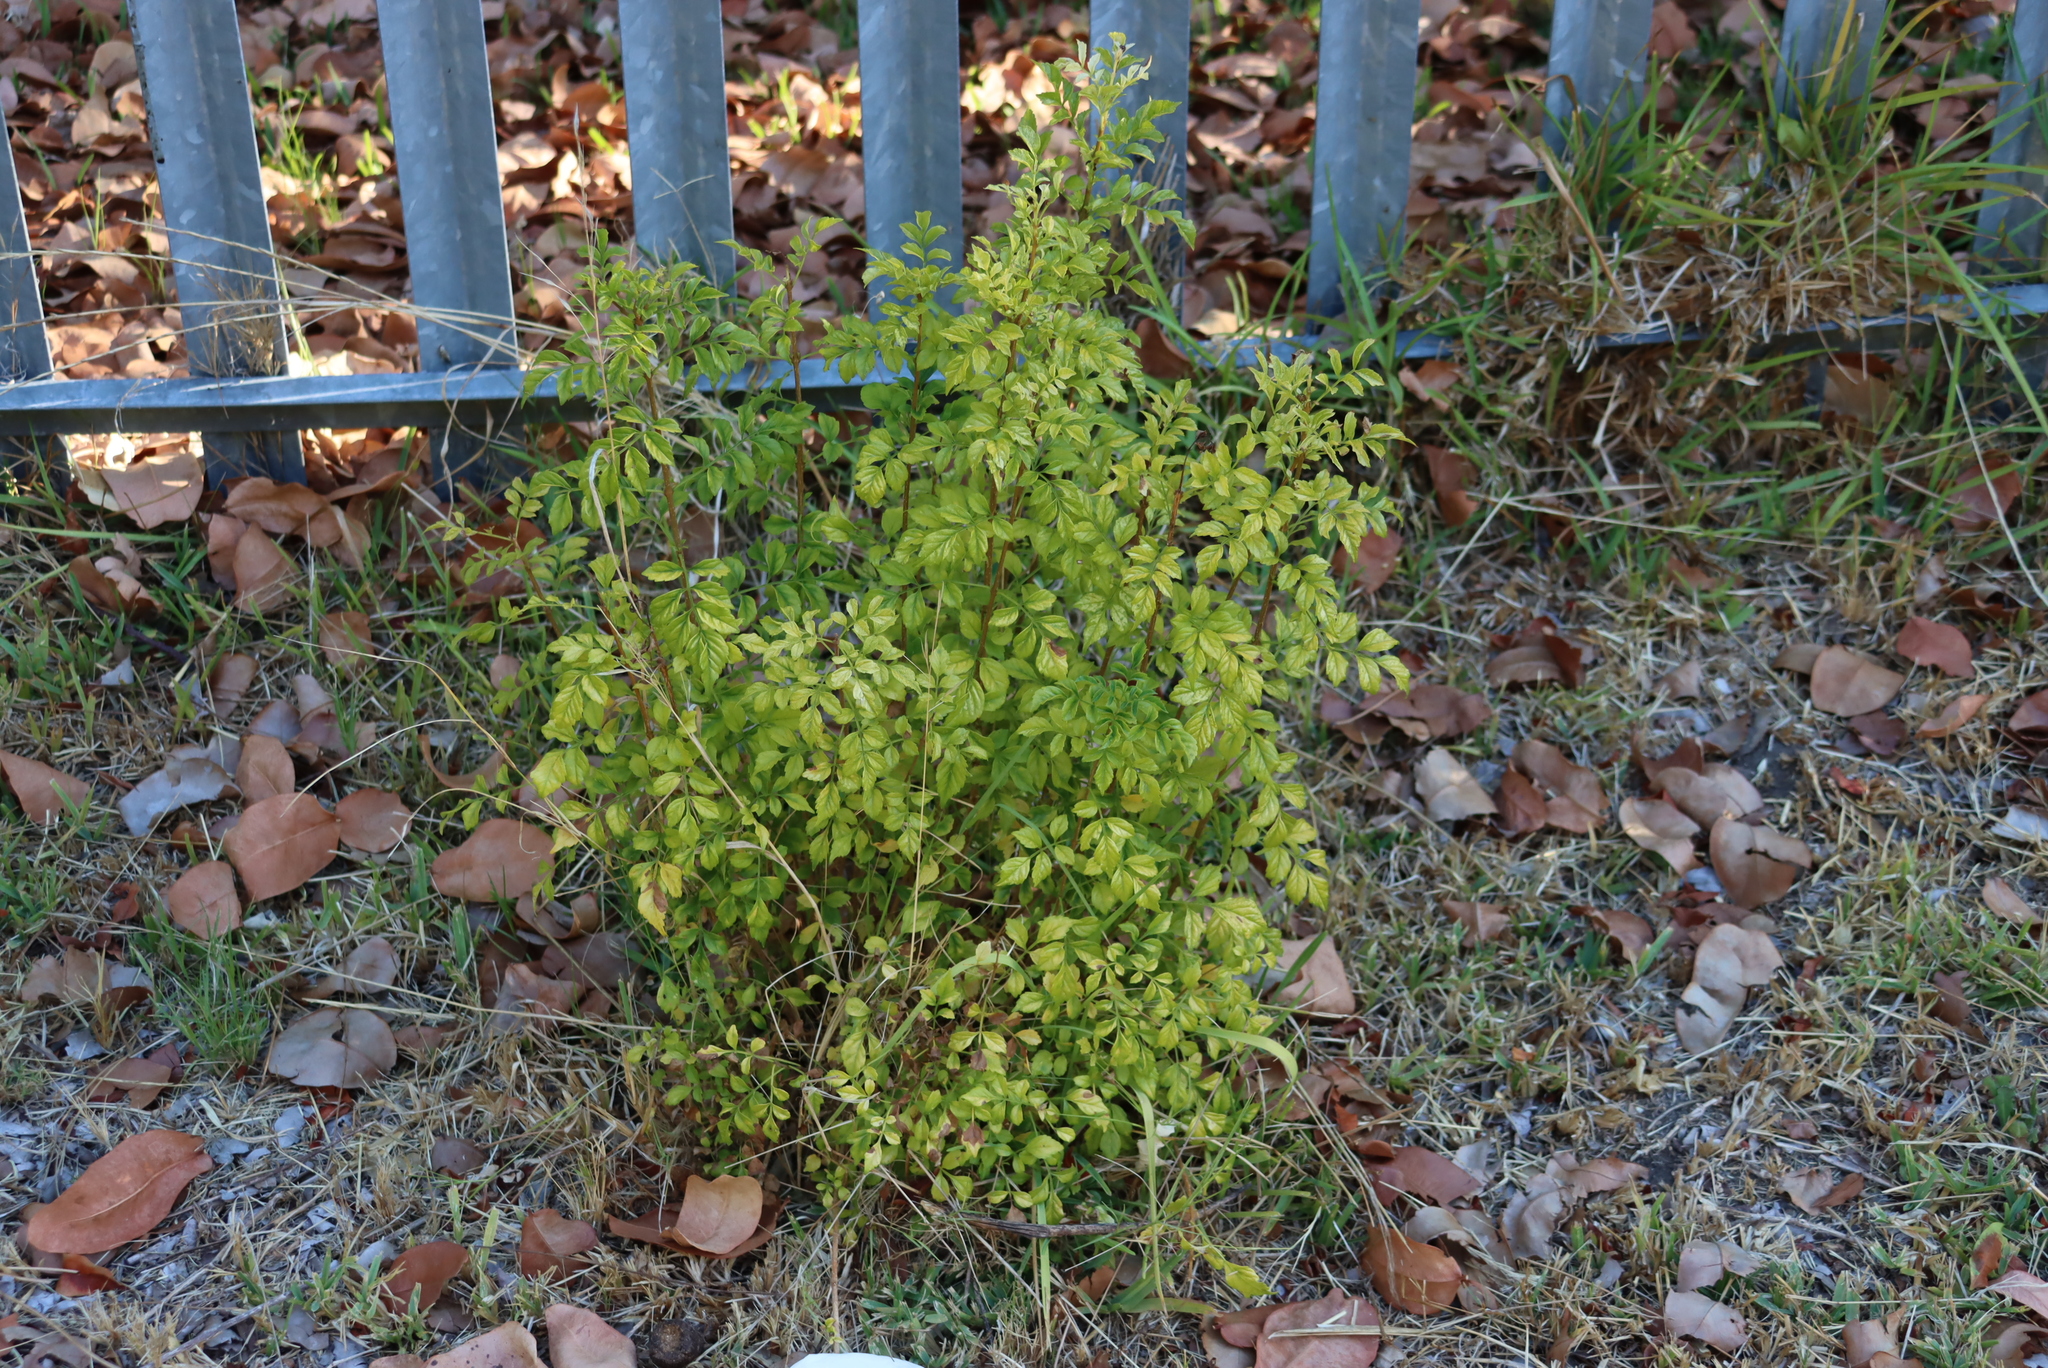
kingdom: Plantae
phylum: Tracheophyta
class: Magnoliopsida
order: Lamiales
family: Bignoniaceae
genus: Tecomaria
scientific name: Tecomaria capensis
